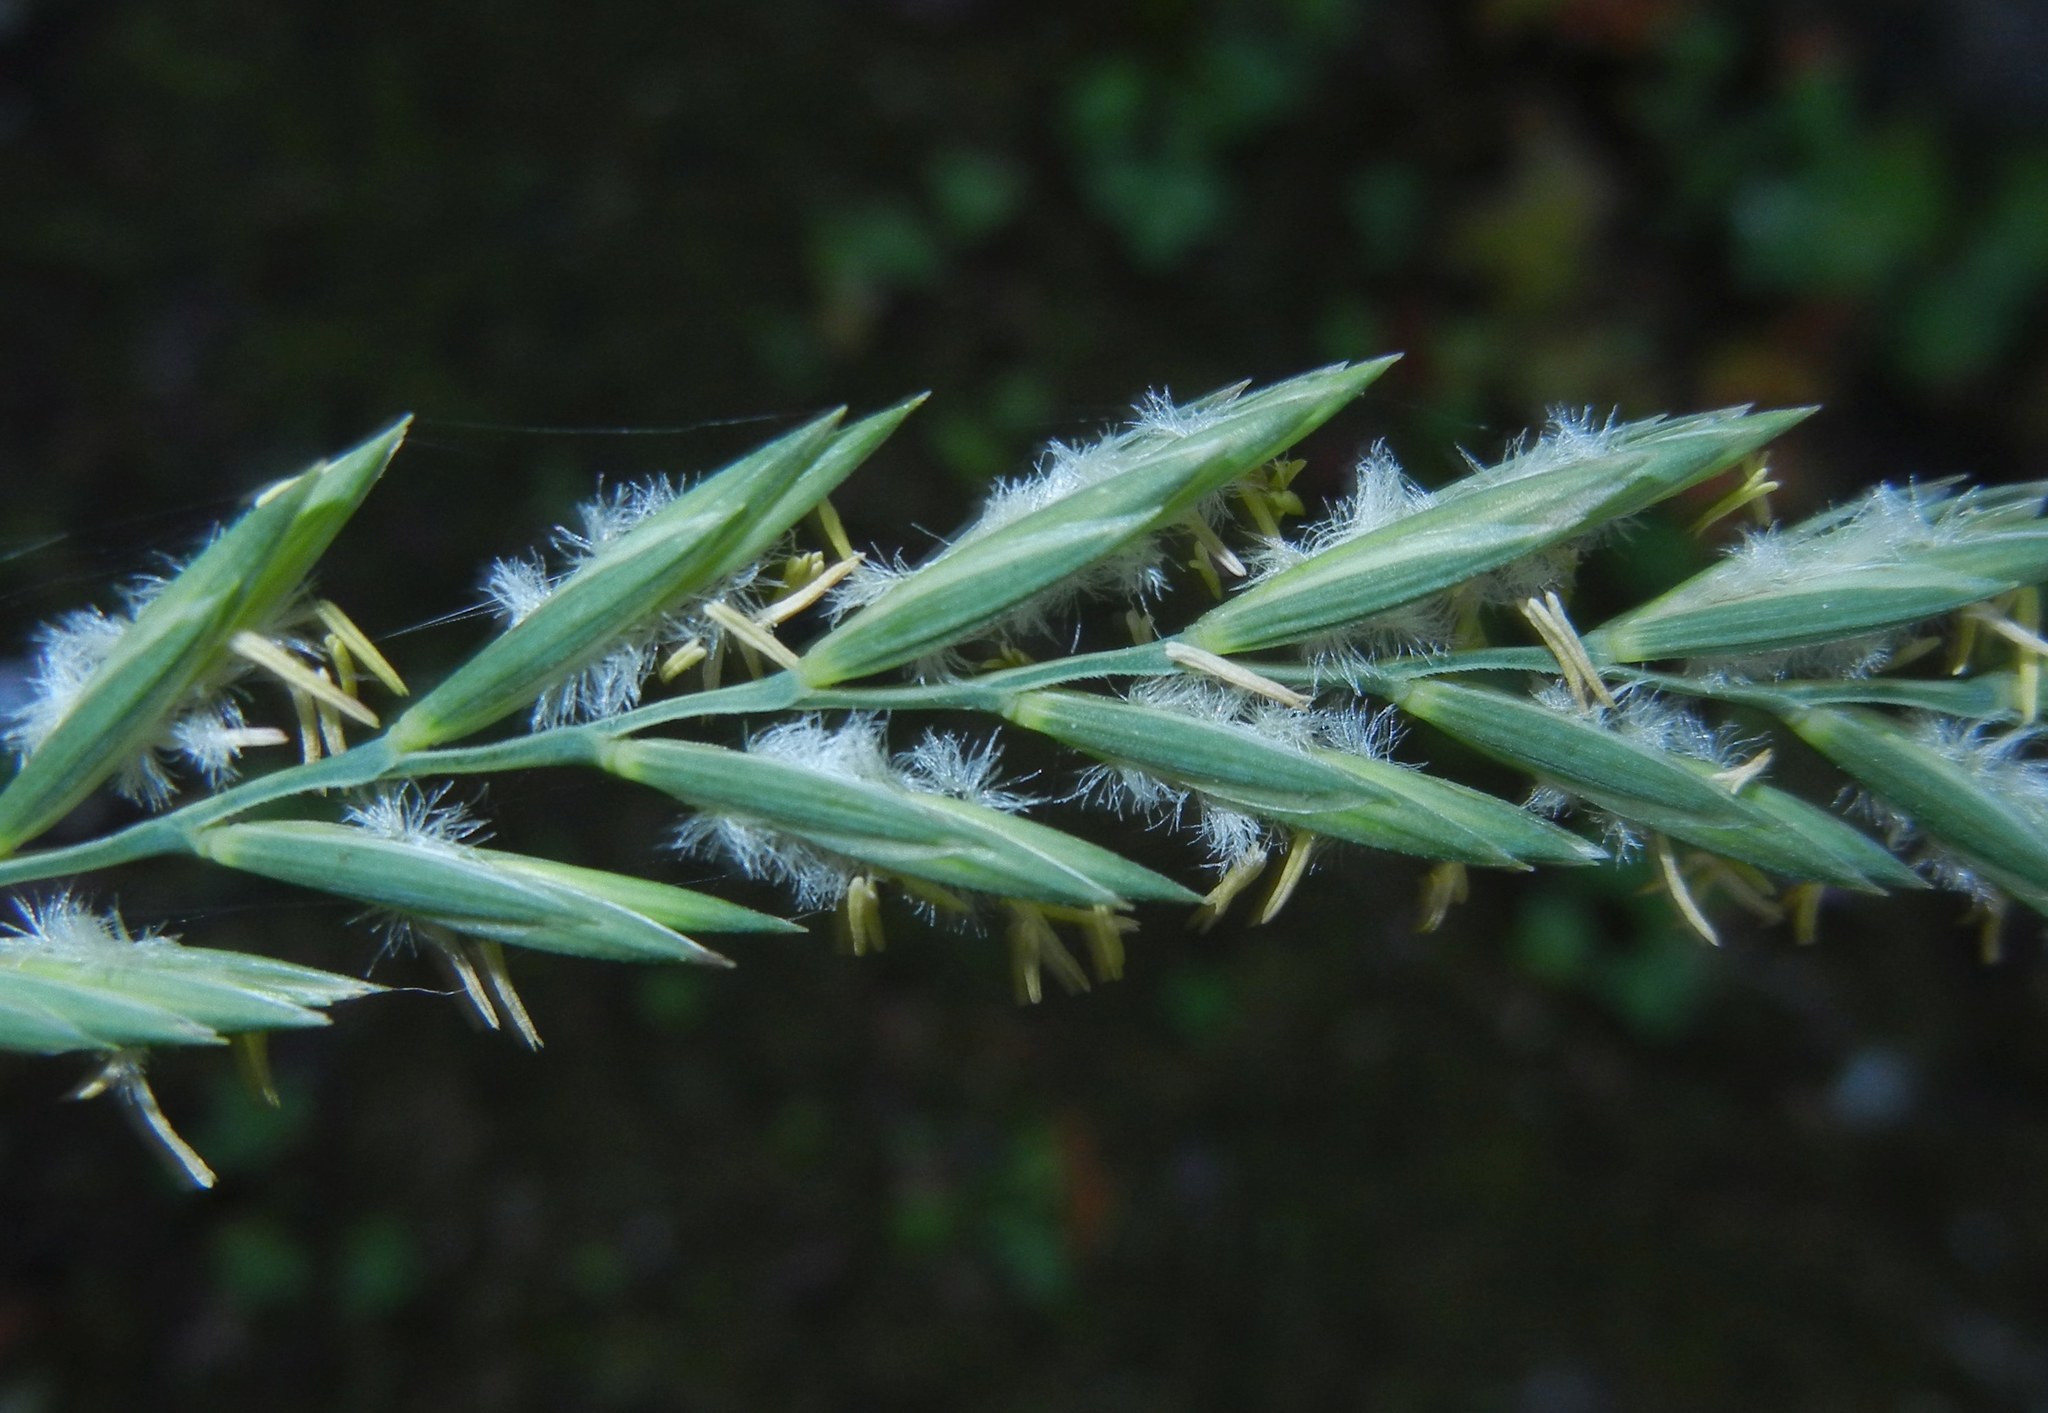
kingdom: Plantae
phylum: Tracheophyta
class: Liliopsida
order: Poales
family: Poaceae
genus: Elymus
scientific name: Elymus repens
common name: Quackgrass
